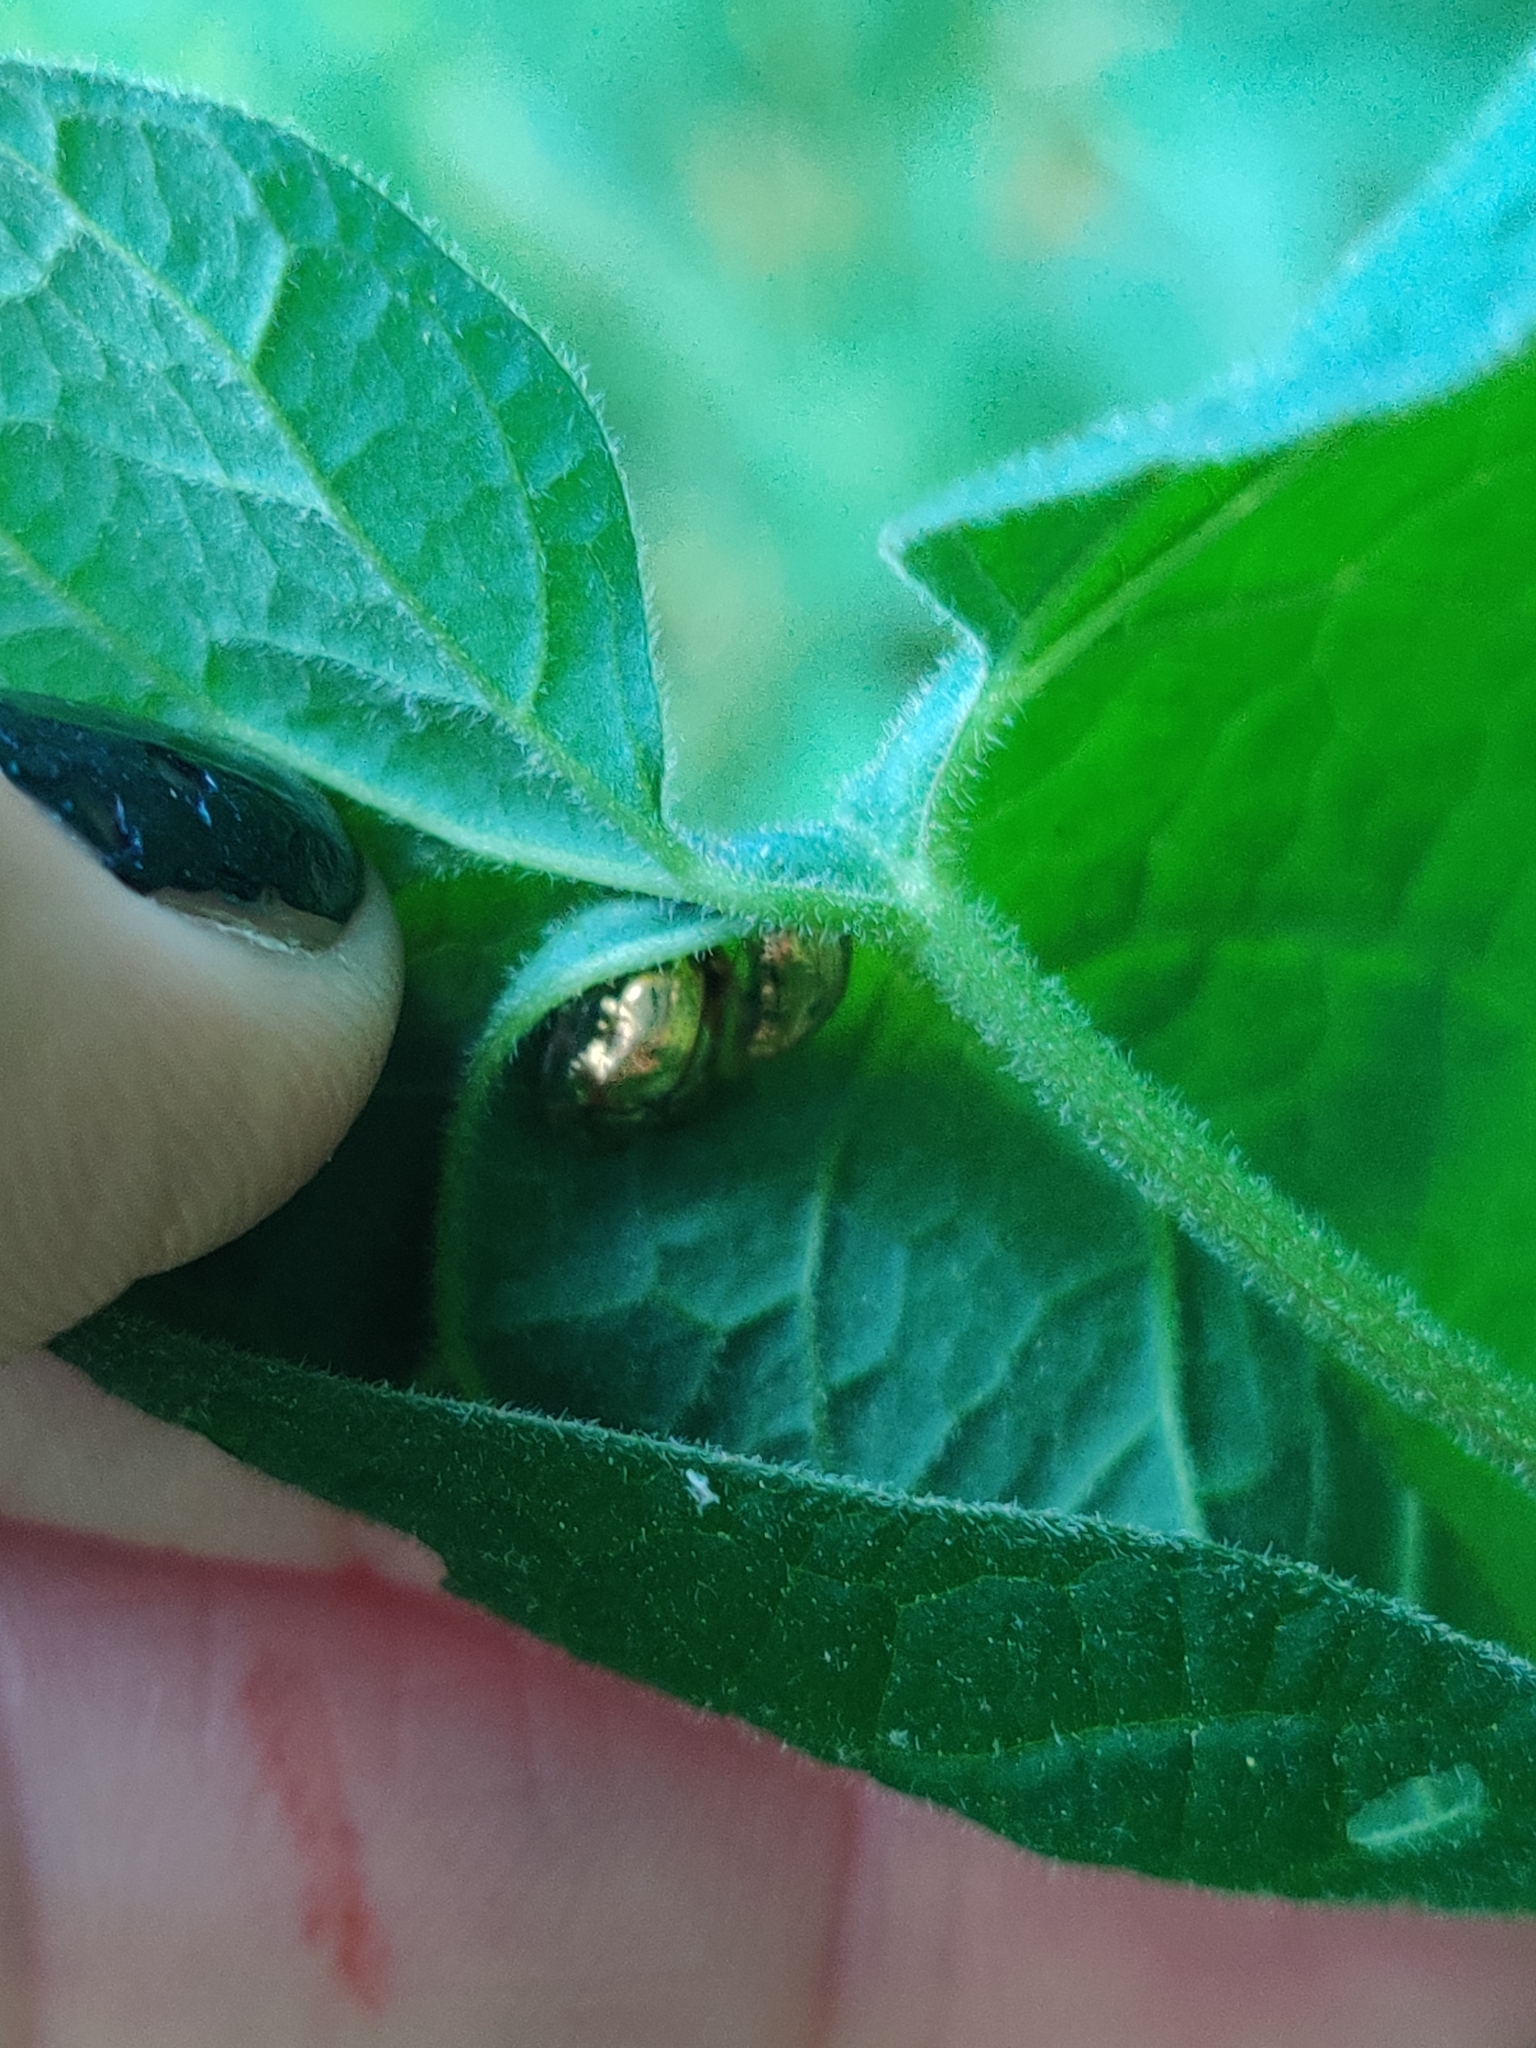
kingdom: Animalia
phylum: Arthropoda
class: Insecta
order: Coleoptera
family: Chrysomelidae
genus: Charidotella
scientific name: Charidotella sexpunctata
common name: Golden tortoise beetle
